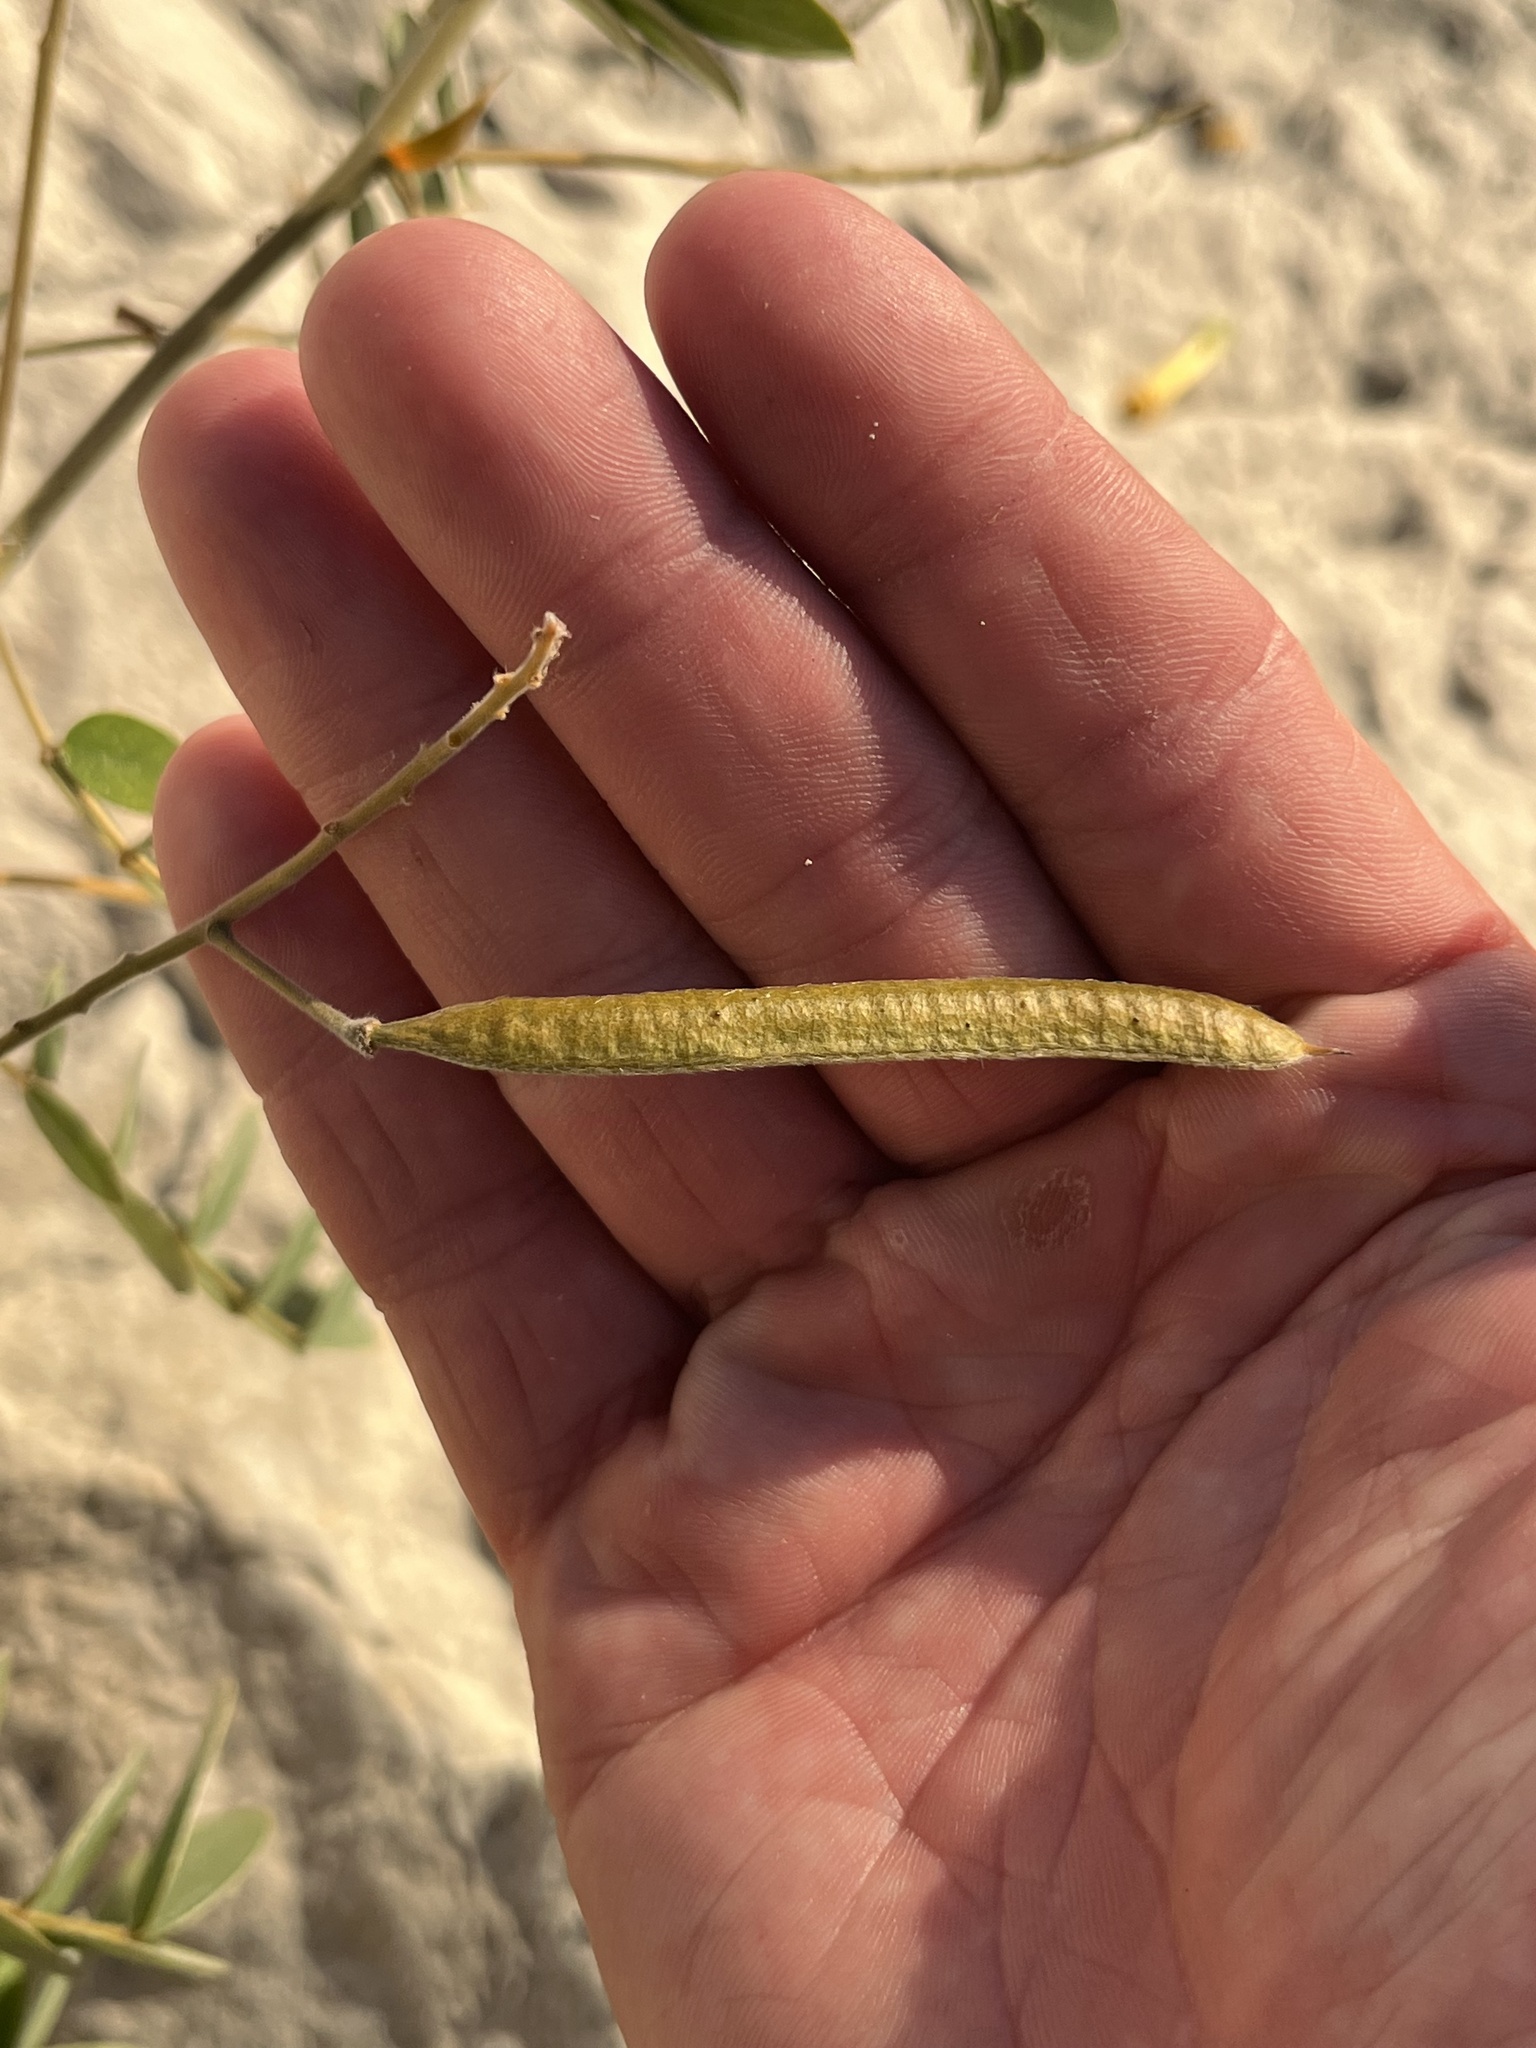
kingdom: Plantae
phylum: Tracheophyta
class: Magnoliopsida
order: Fabales
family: Fabaceae
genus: Senna
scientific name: Senna lindheimeriana
